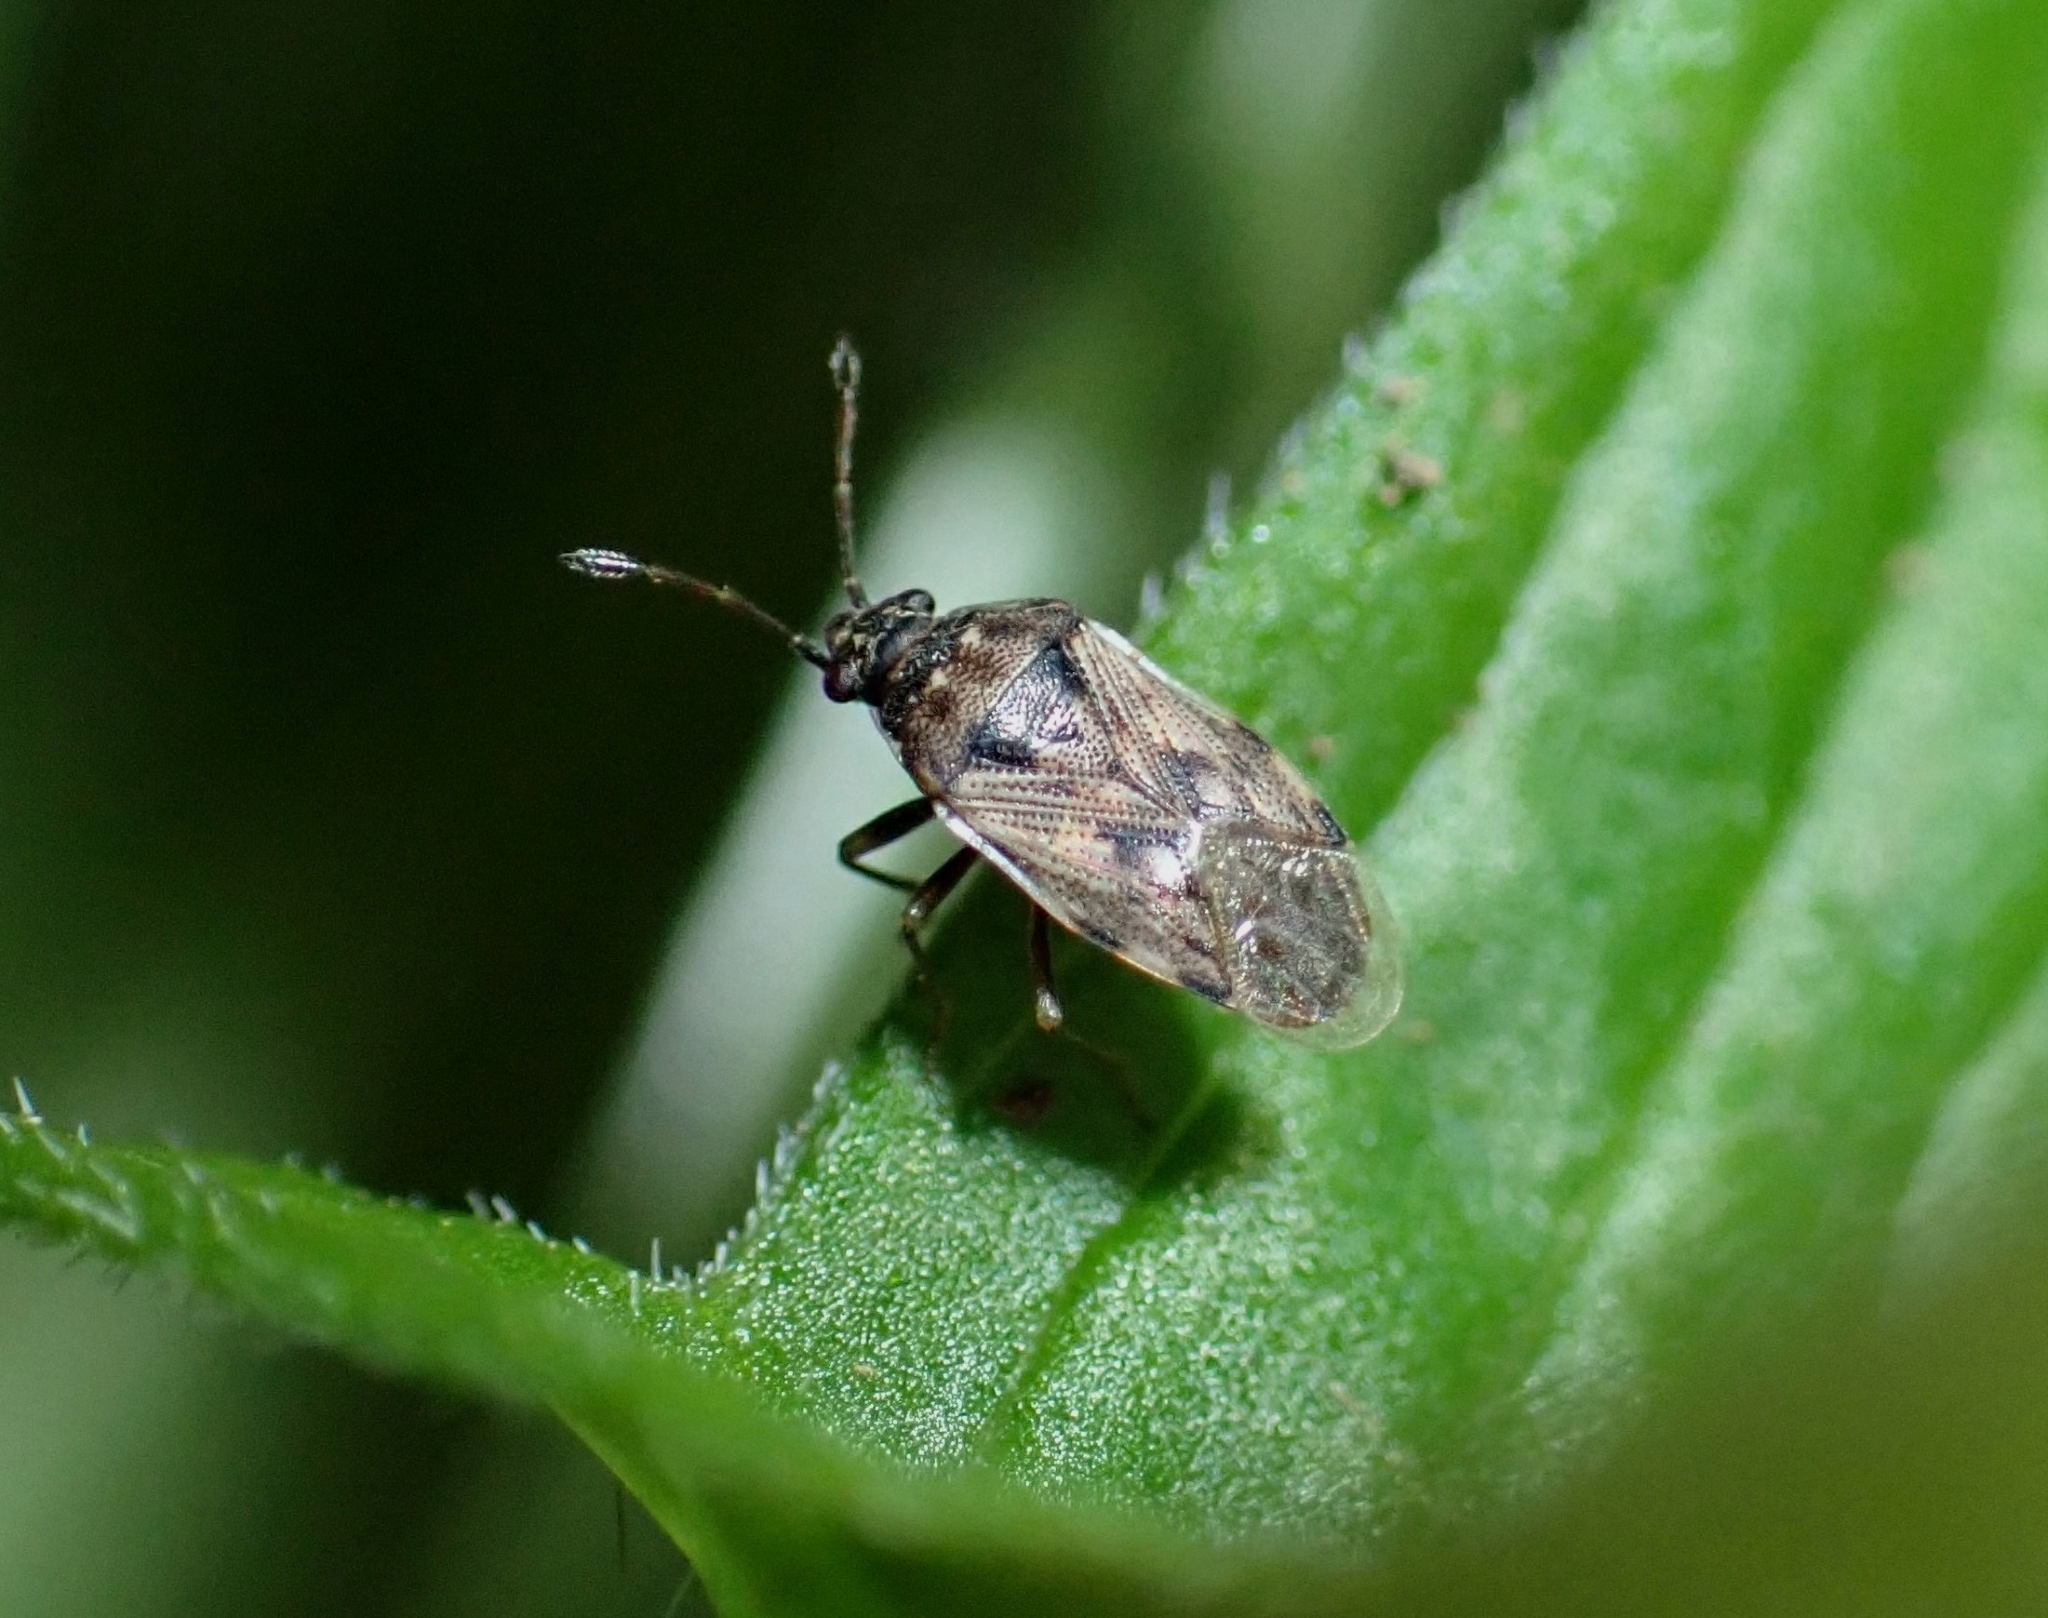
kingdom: Animalia
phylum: Arthropoda
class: Insecta
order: Hemiptera
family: Rhyparochromidae
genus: Hyalochilus
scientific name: Hyalochilus ovatulus
